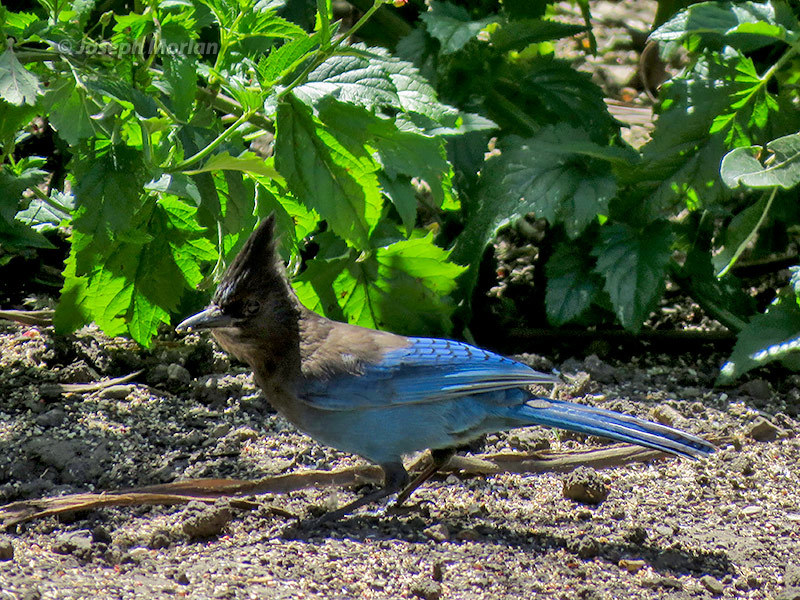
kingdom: Animalia
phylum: Chordata
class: Aves
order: Passeriformes
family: Corvidae
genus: Cyanocitta
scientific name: Cyanocitta stelleri
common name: Steller's jay
